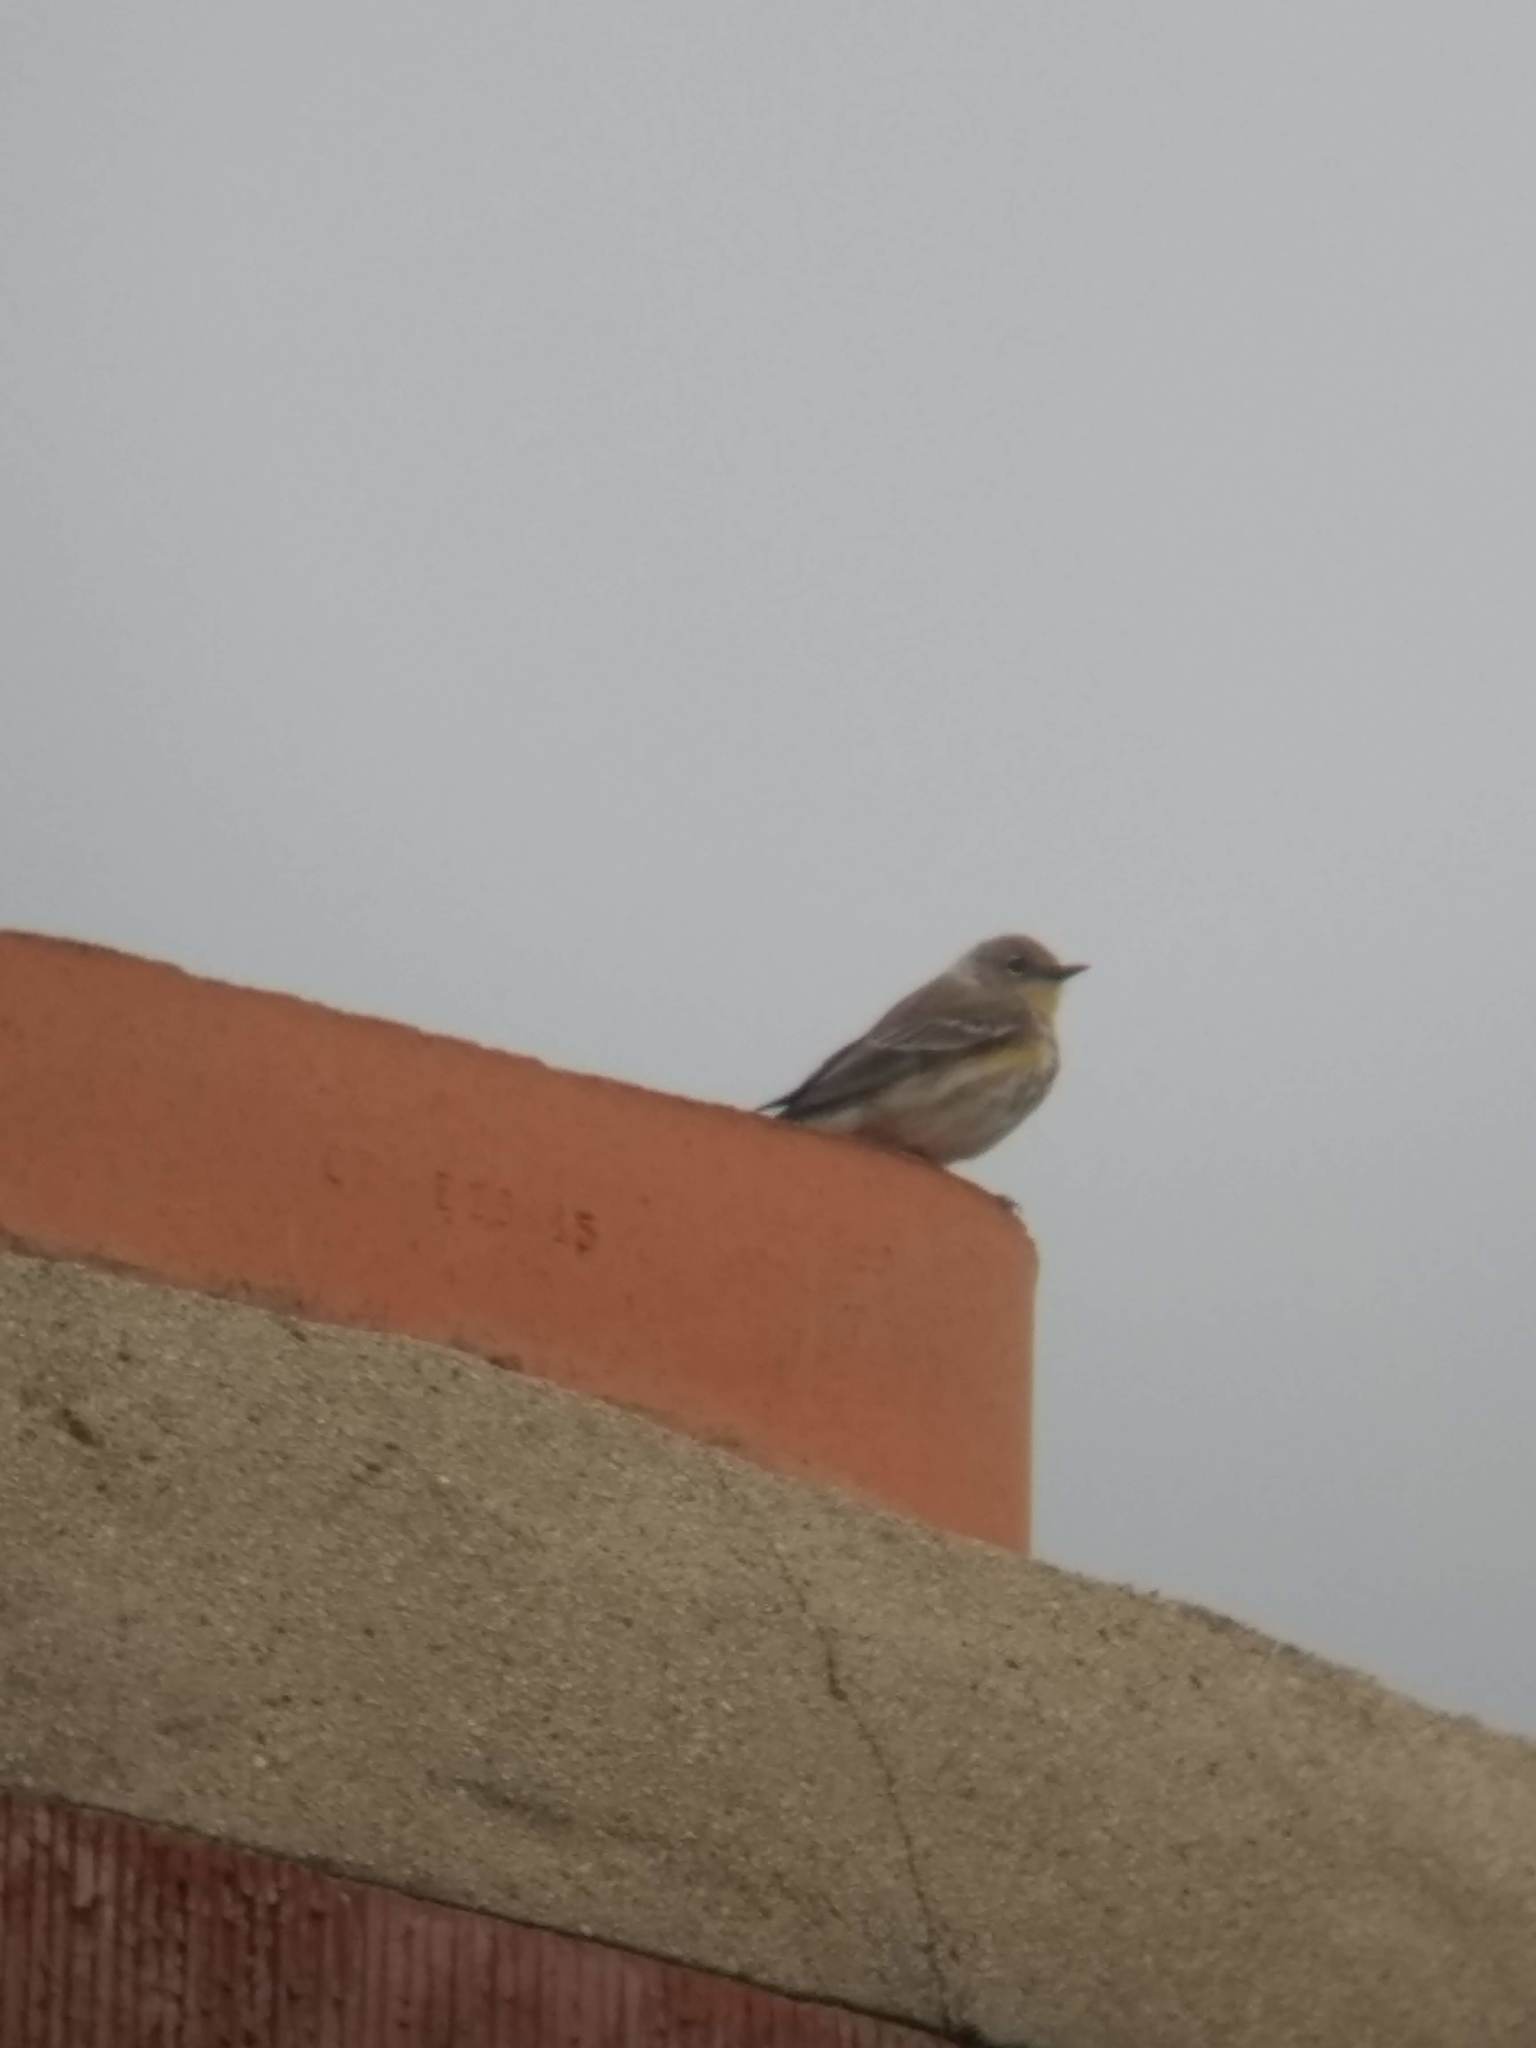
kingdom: Animalia
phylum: Chordata
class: Aves
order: Passeriformes
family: Parulidae
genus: Setophaga
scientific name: Setophaga coronata
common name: Myrtle warbler
